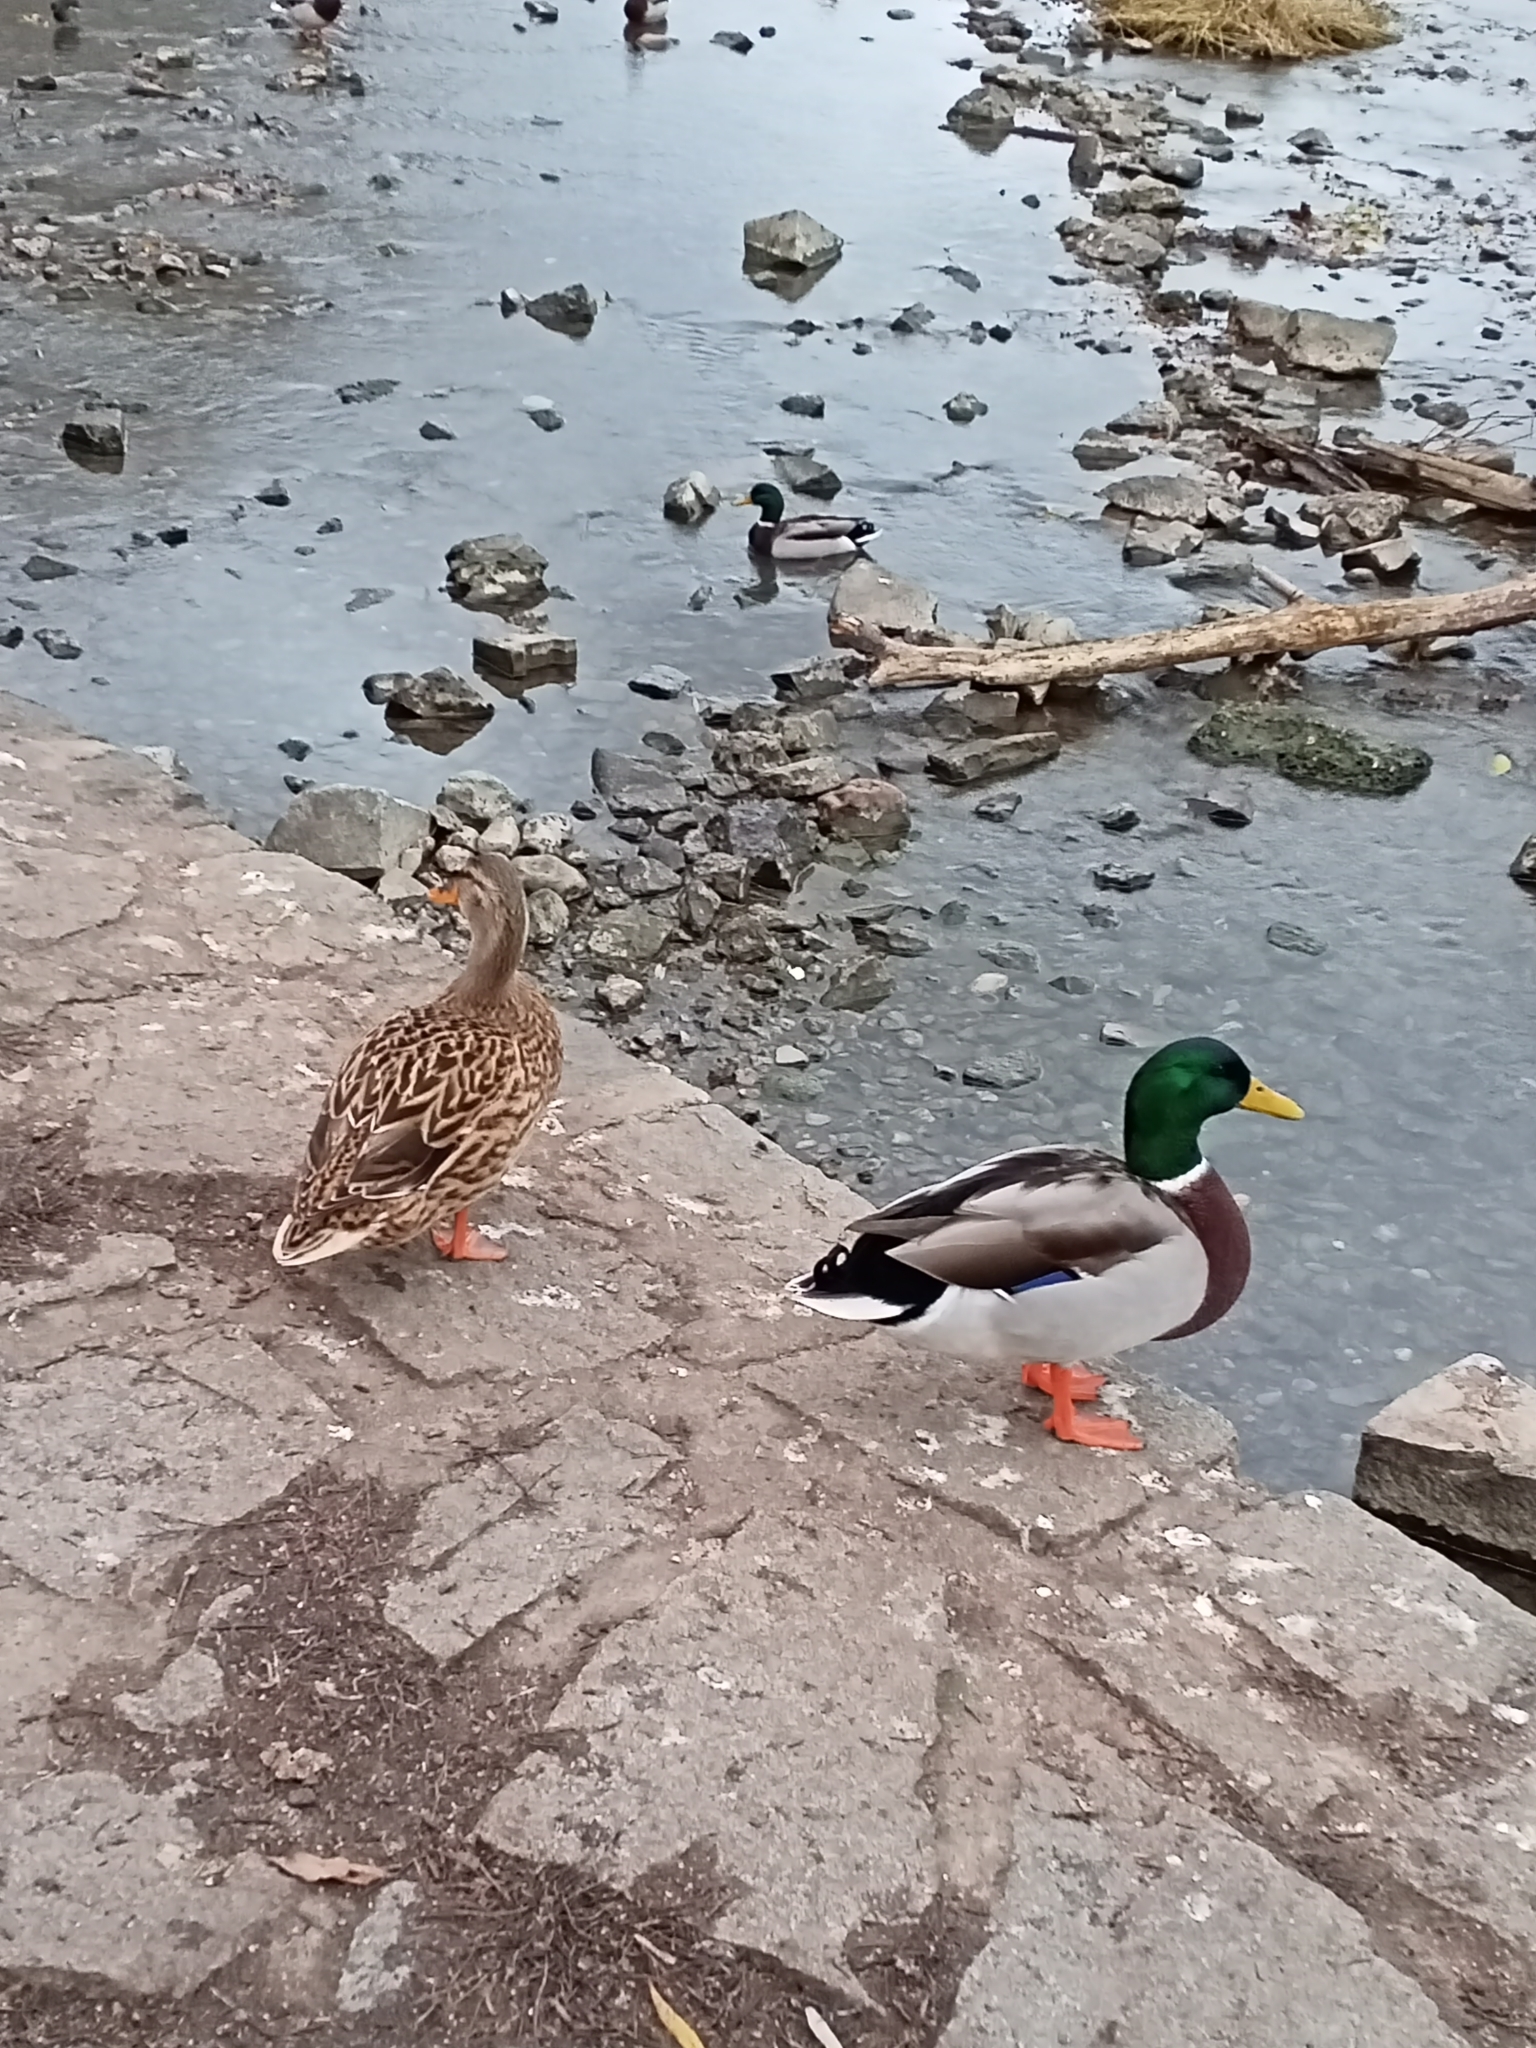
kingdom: Animalia
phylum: Chordata
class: Aves
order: Anseriformes
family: Anatidae
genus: Anas
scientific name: Anas platyrhynchos
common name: Mallard
